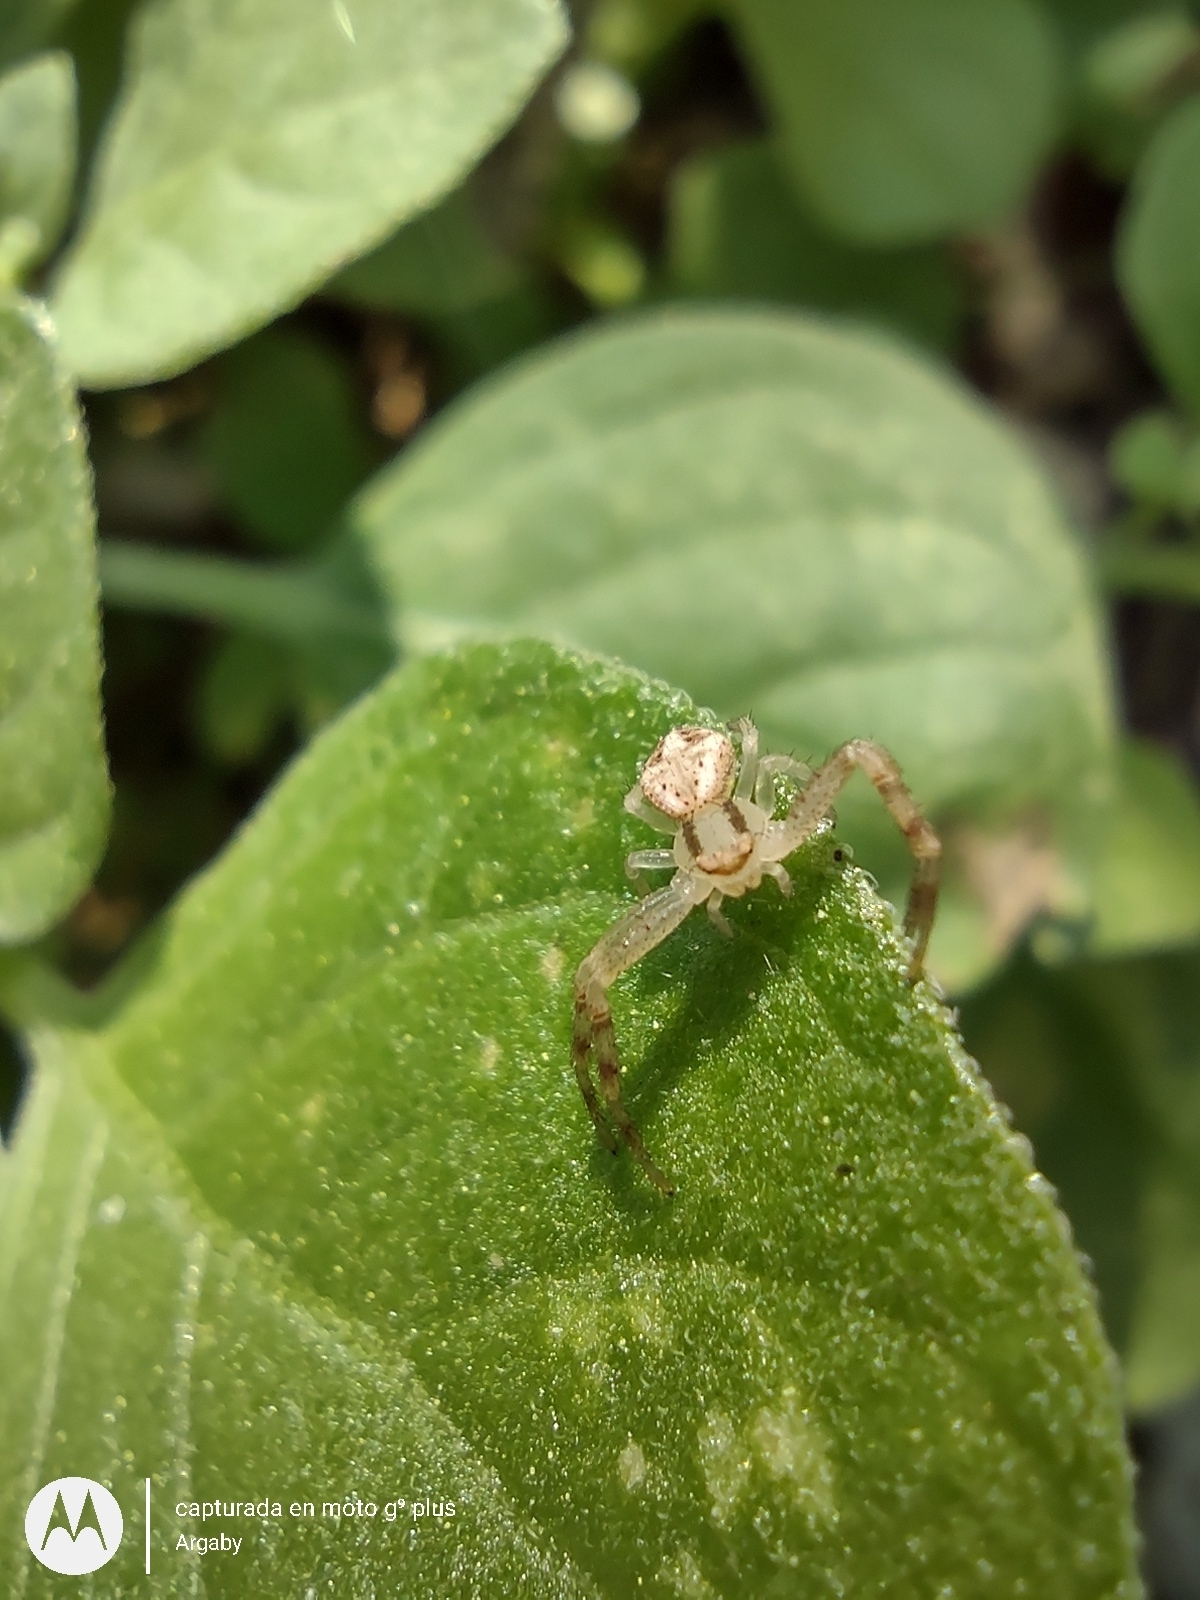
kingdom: Animalia
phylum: Arthropoda
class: Arachnida
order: Araneae
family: Thomisidae
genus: Misumenops
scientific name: Misumenops
